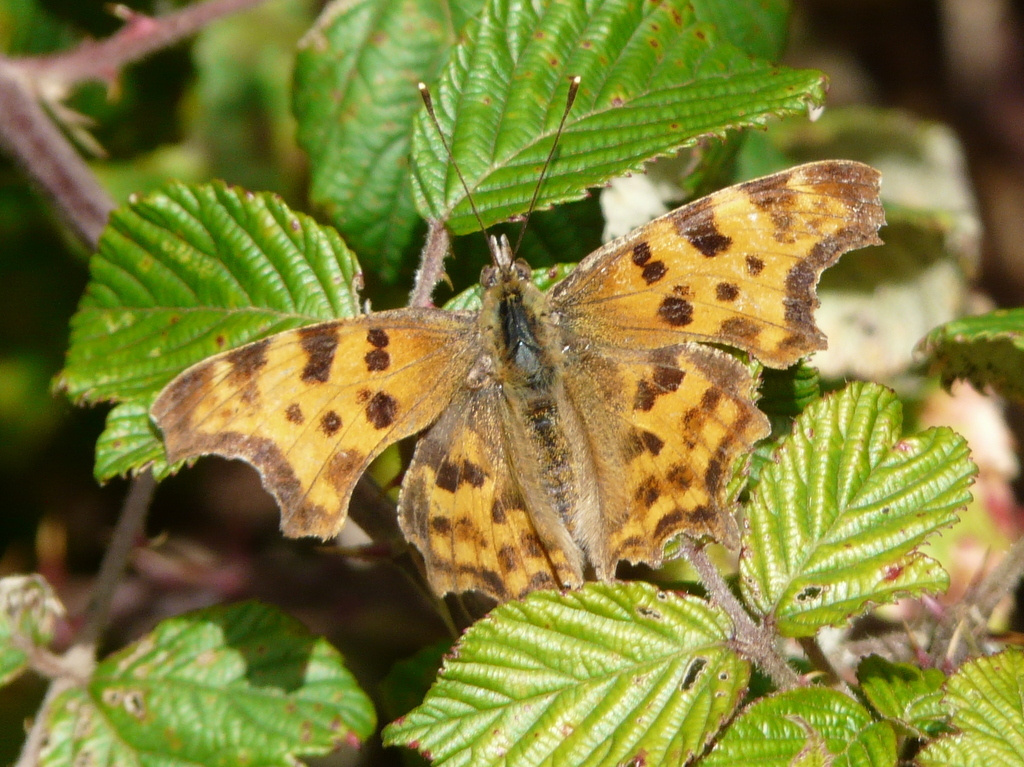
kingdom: Animalia
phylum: Arthropoda
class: Insecta
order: Lepidoptera
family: Nymphalidae
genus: Polygonia
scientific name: Polygonia c-album
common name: Comma
